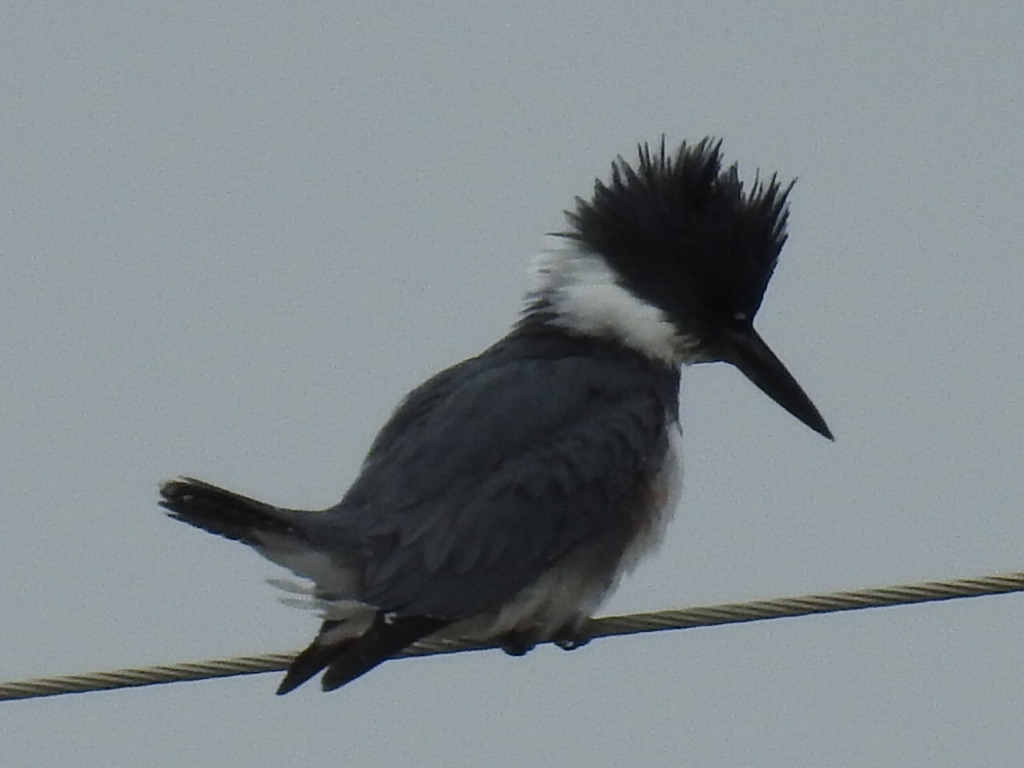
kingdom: Animalia
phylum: Chordata
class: Aves
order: Coraciiformes
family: Alcedinidae
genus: Megaceryle
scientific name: Megaceryle alcyon
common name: Belted kingfisher
